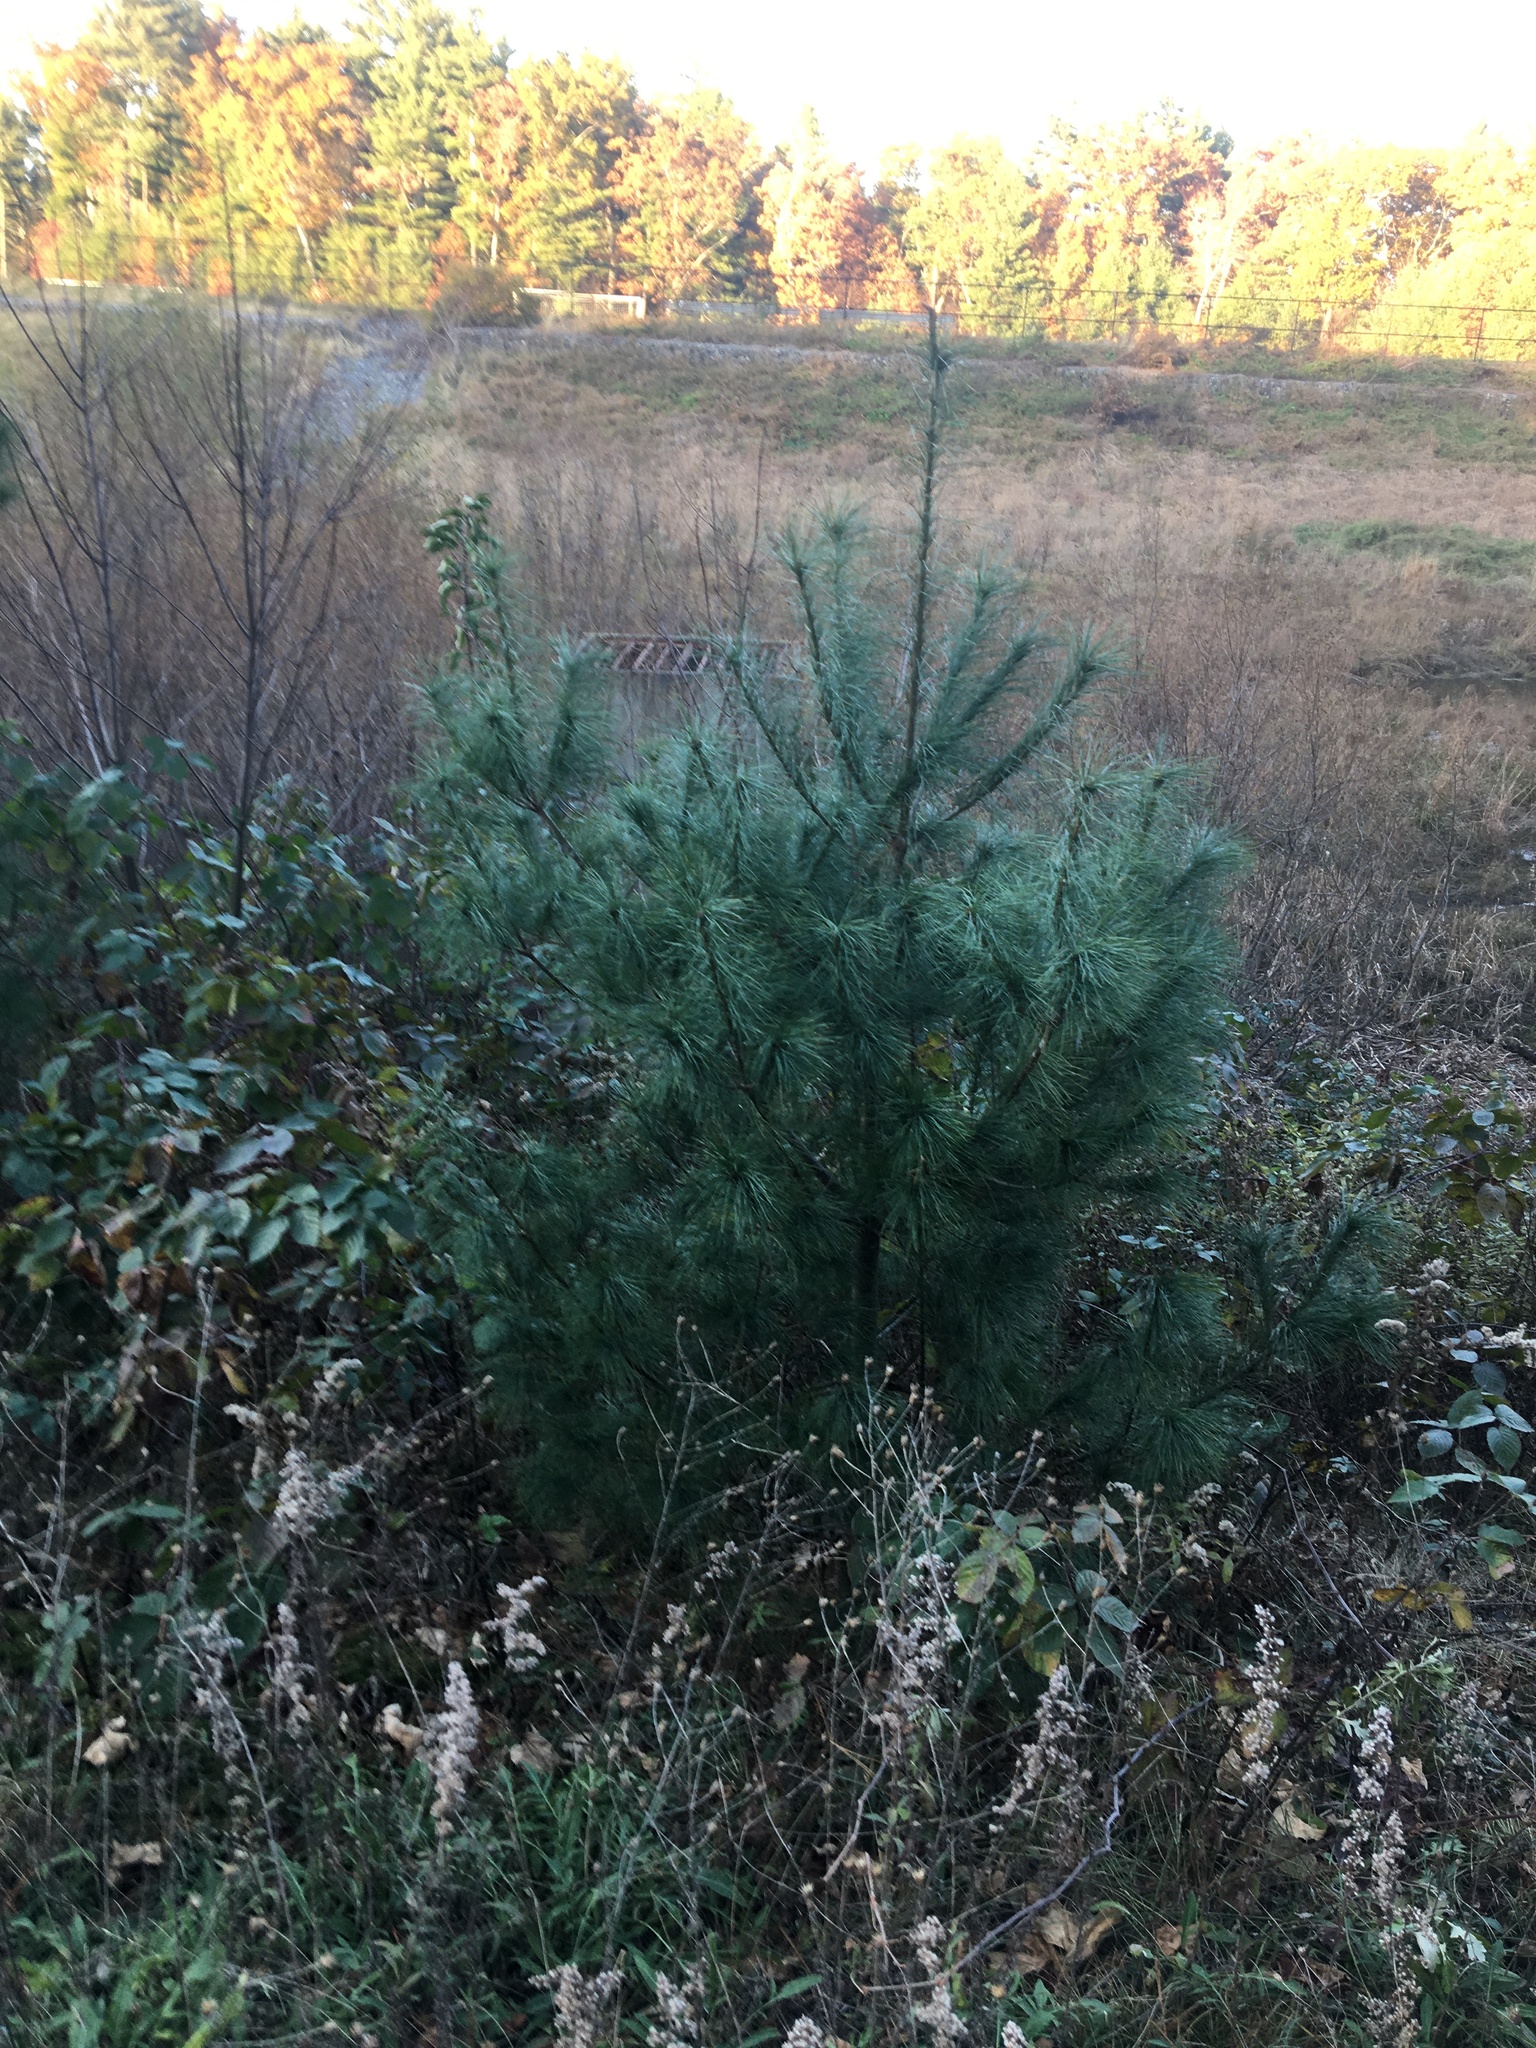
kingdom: Plantae
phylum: Tracheophyta
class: Pinopsida
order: Pinales
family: Pinaceae
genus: Pinus
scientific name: Pinus strobus
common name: Weymouth pine
